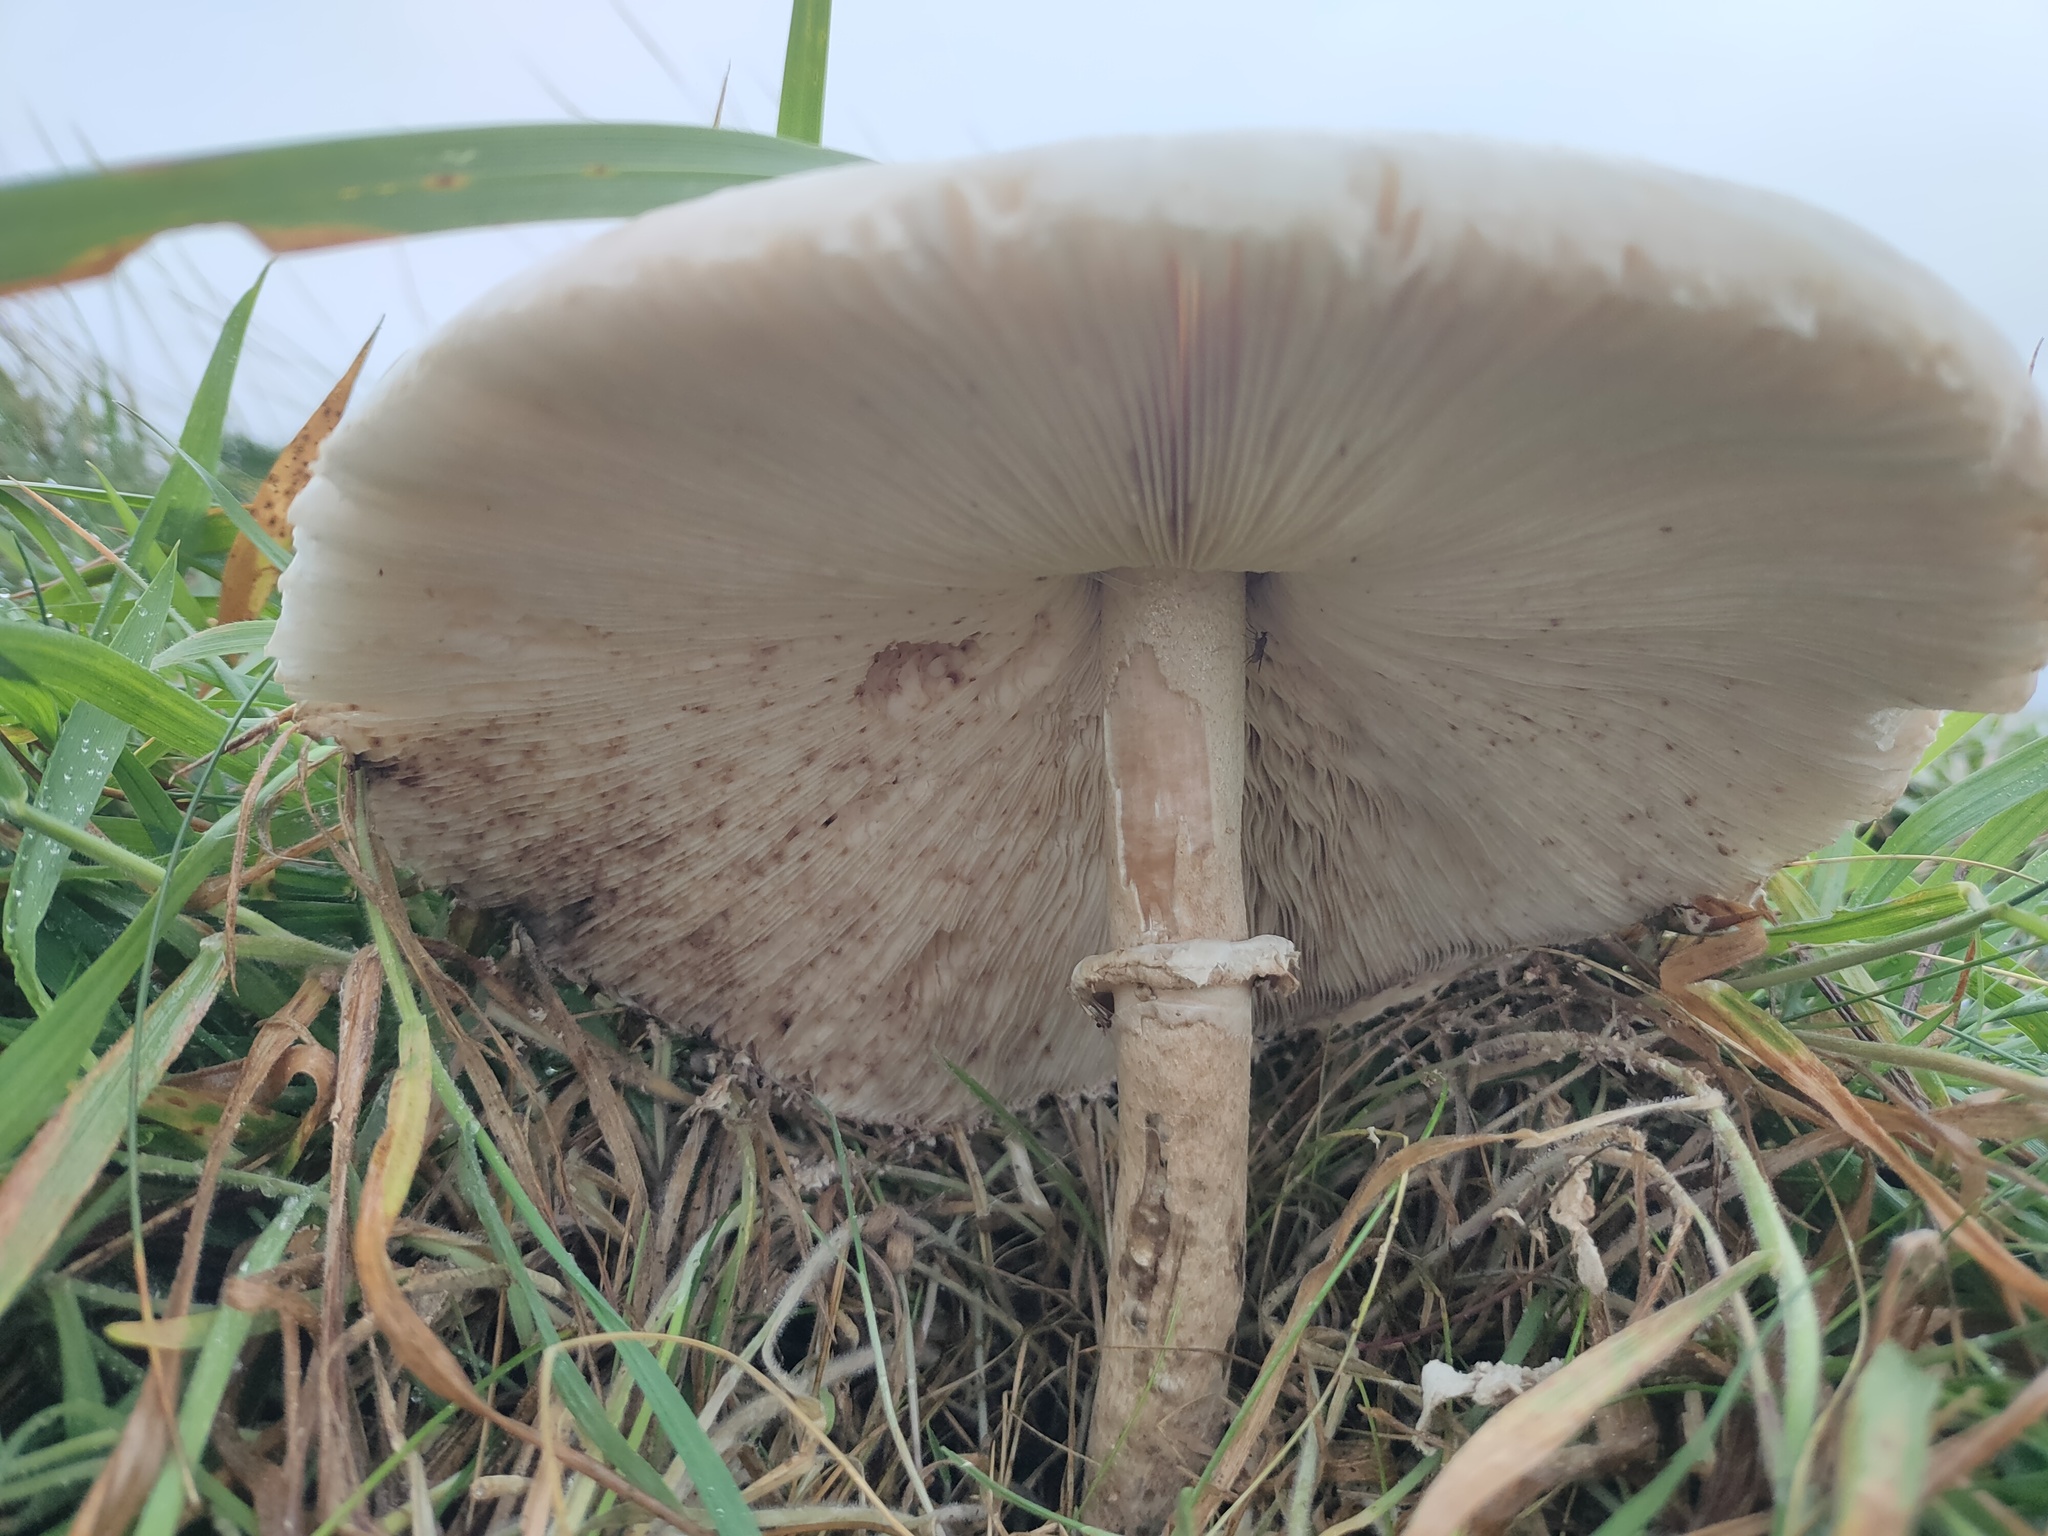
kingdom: Fungi
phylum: Basidiomycota
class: Agaricomycetes
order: Agaricales
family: Agaricaceae
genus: Macrolepiota
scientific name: Macrolepiota procera
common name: Parasol
